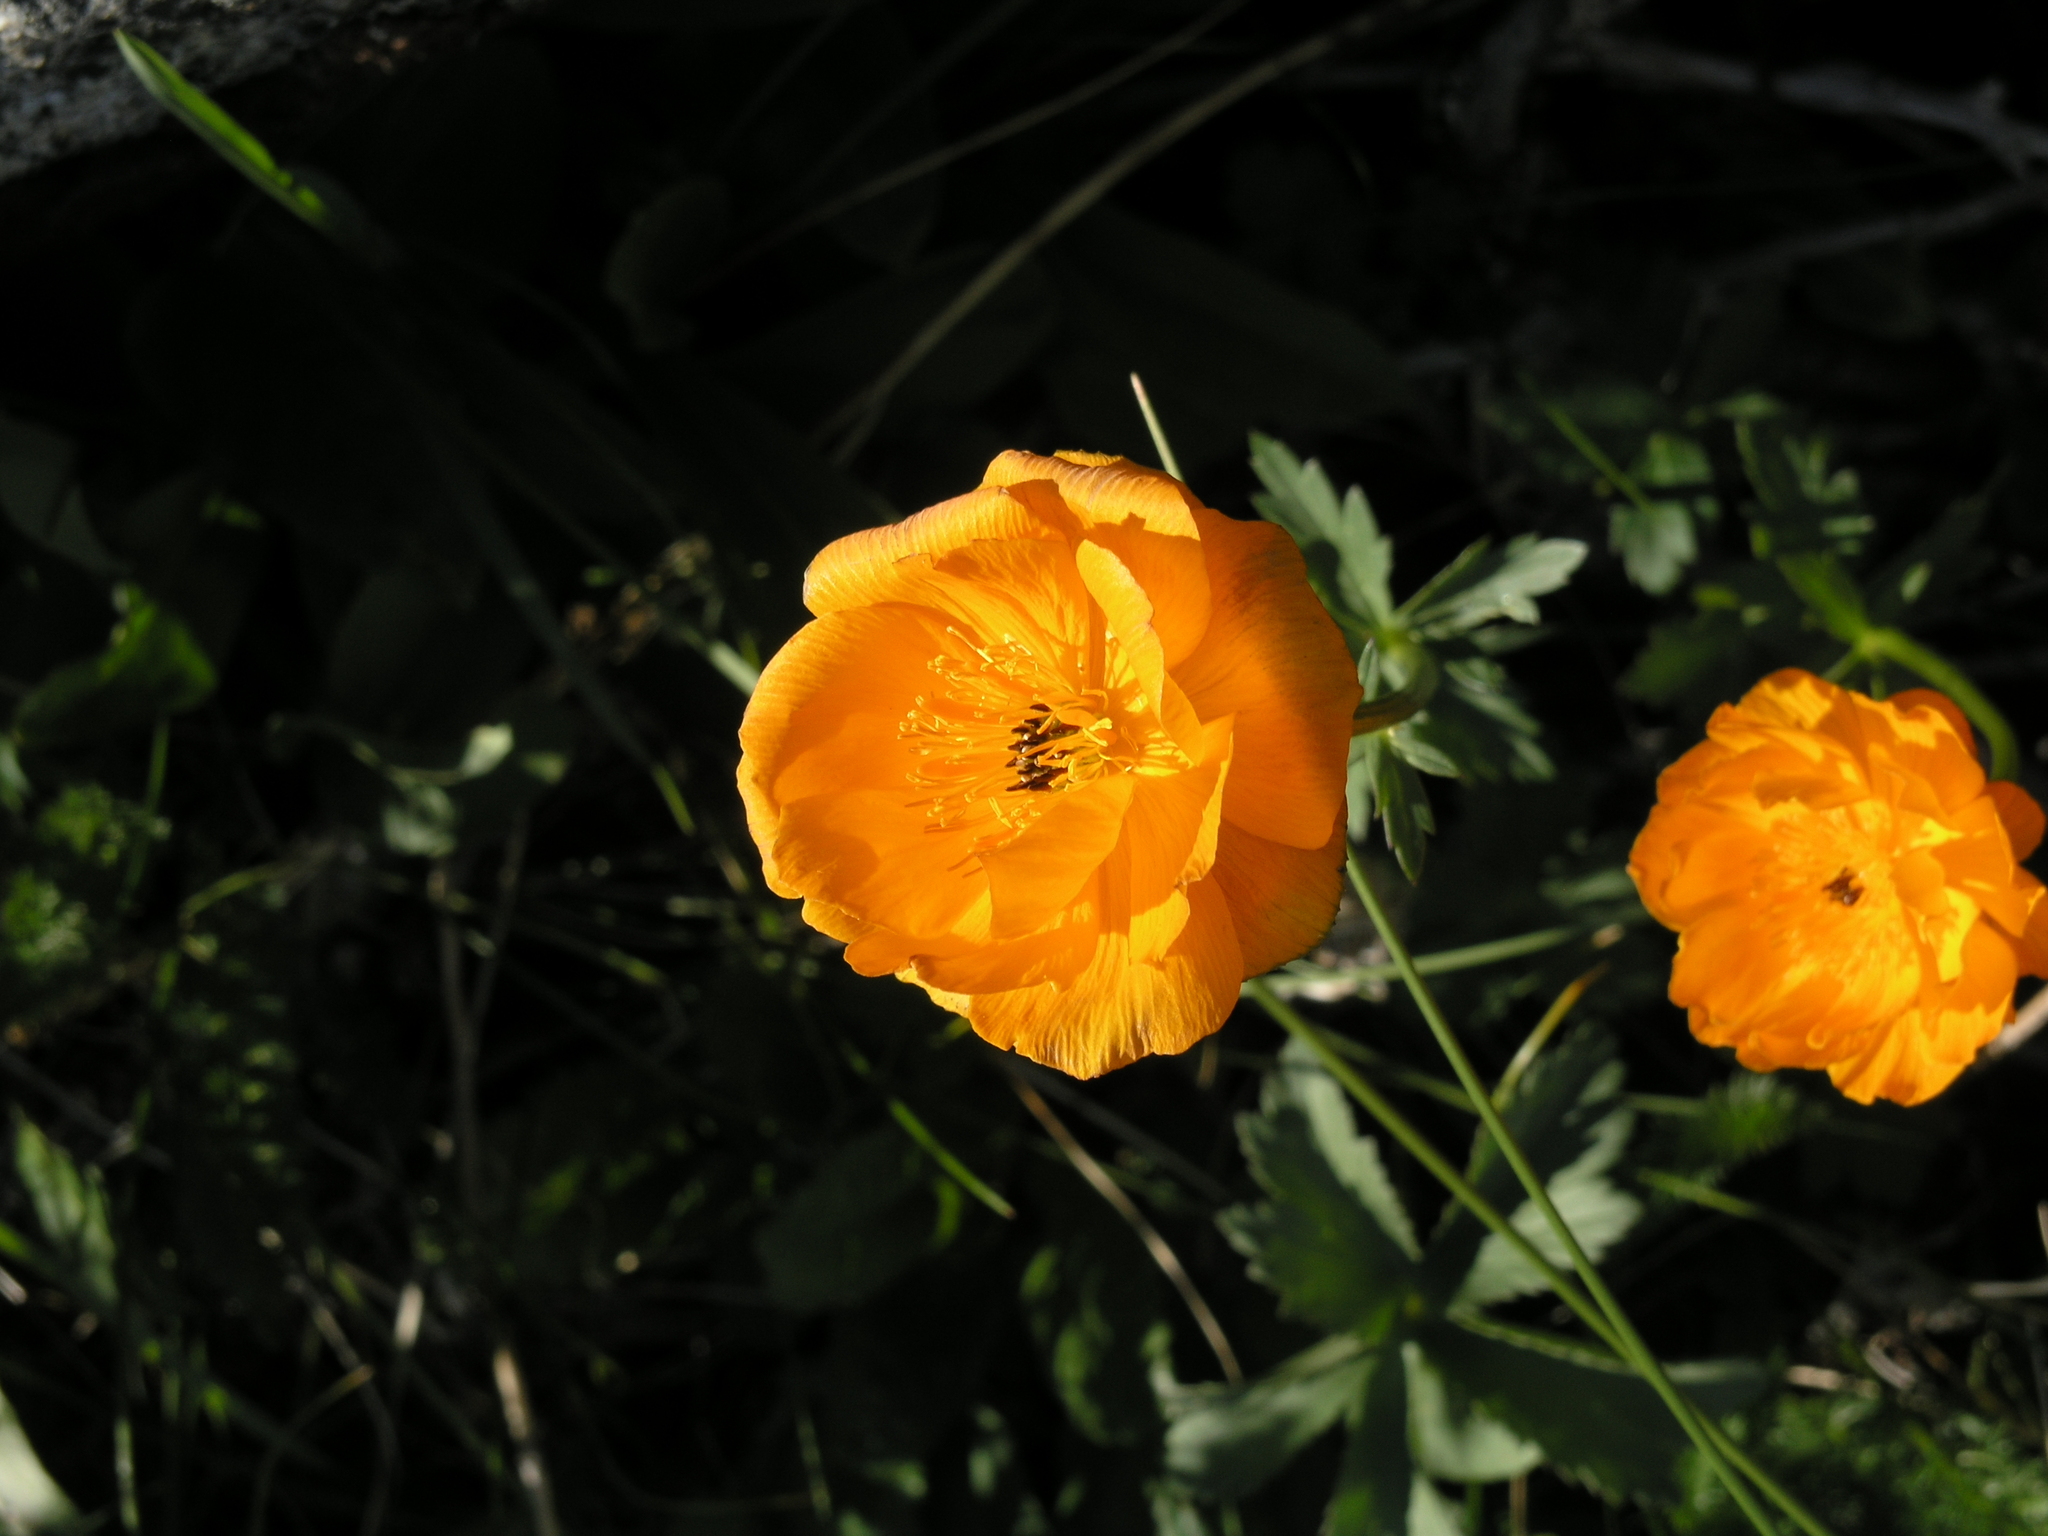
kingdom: Plantae
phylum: Tracheophyta
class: Magnoliopsida
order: Ranunculales
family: Ranunculaceae
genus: Trollius
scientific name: Trollius altaicus
